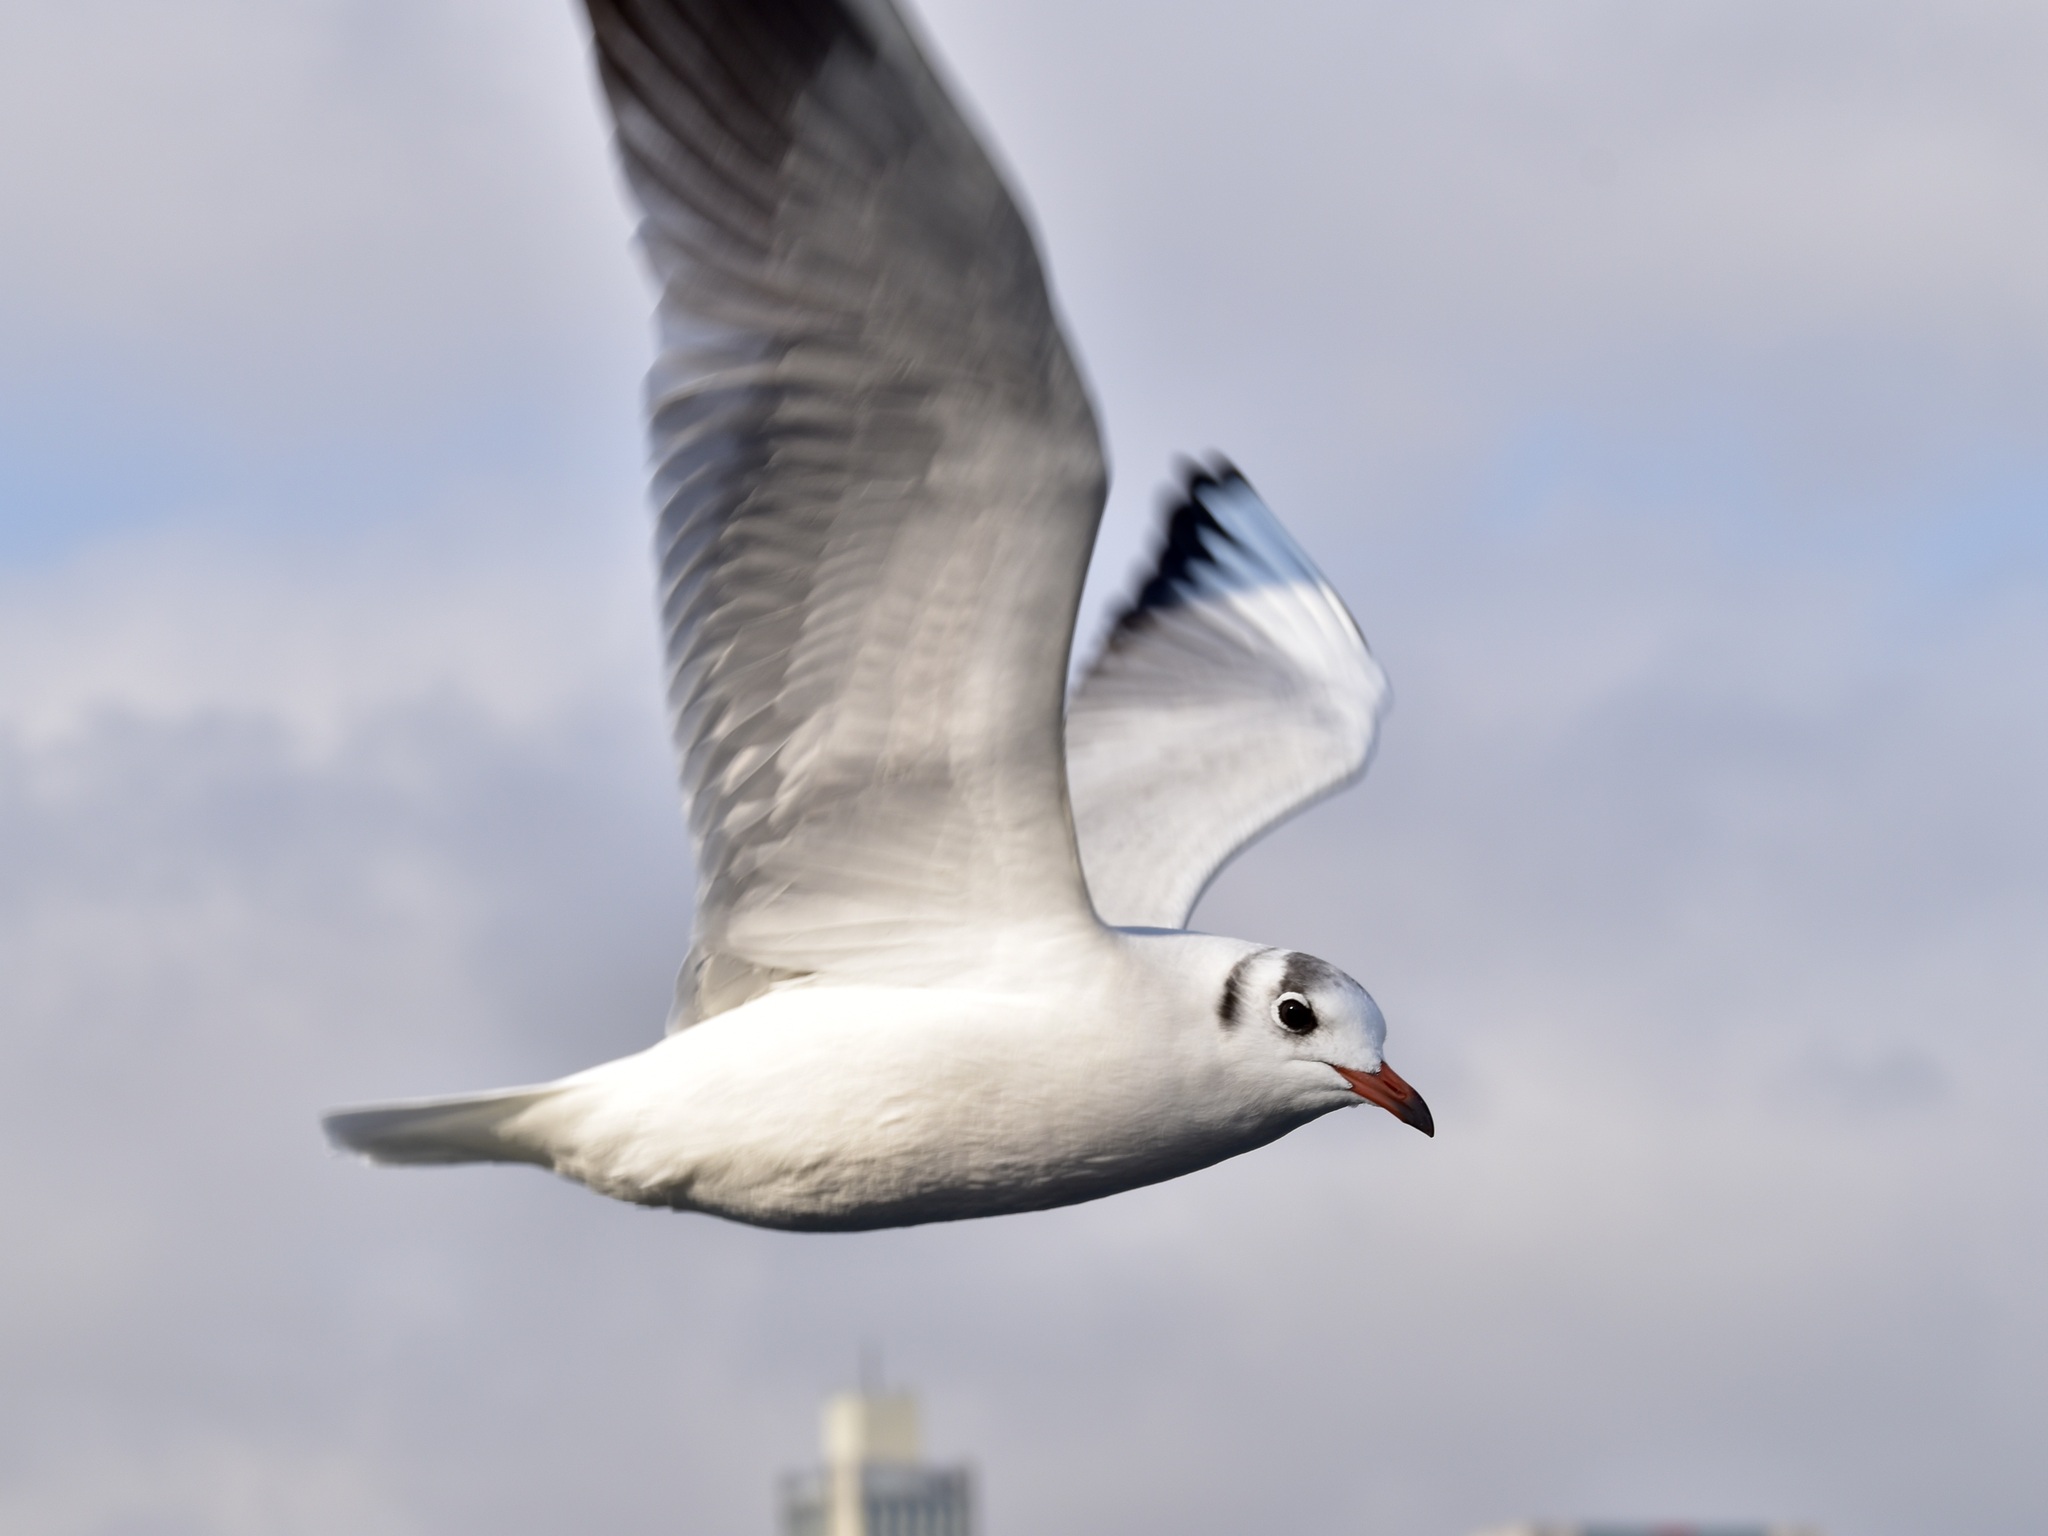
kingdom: Animalia
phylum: Chordata
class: Aves
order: Charadriiformes
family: Laridae
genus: Chroicocephalus
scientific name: Chroicocephalus ridibundus
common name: Black-headed gull
